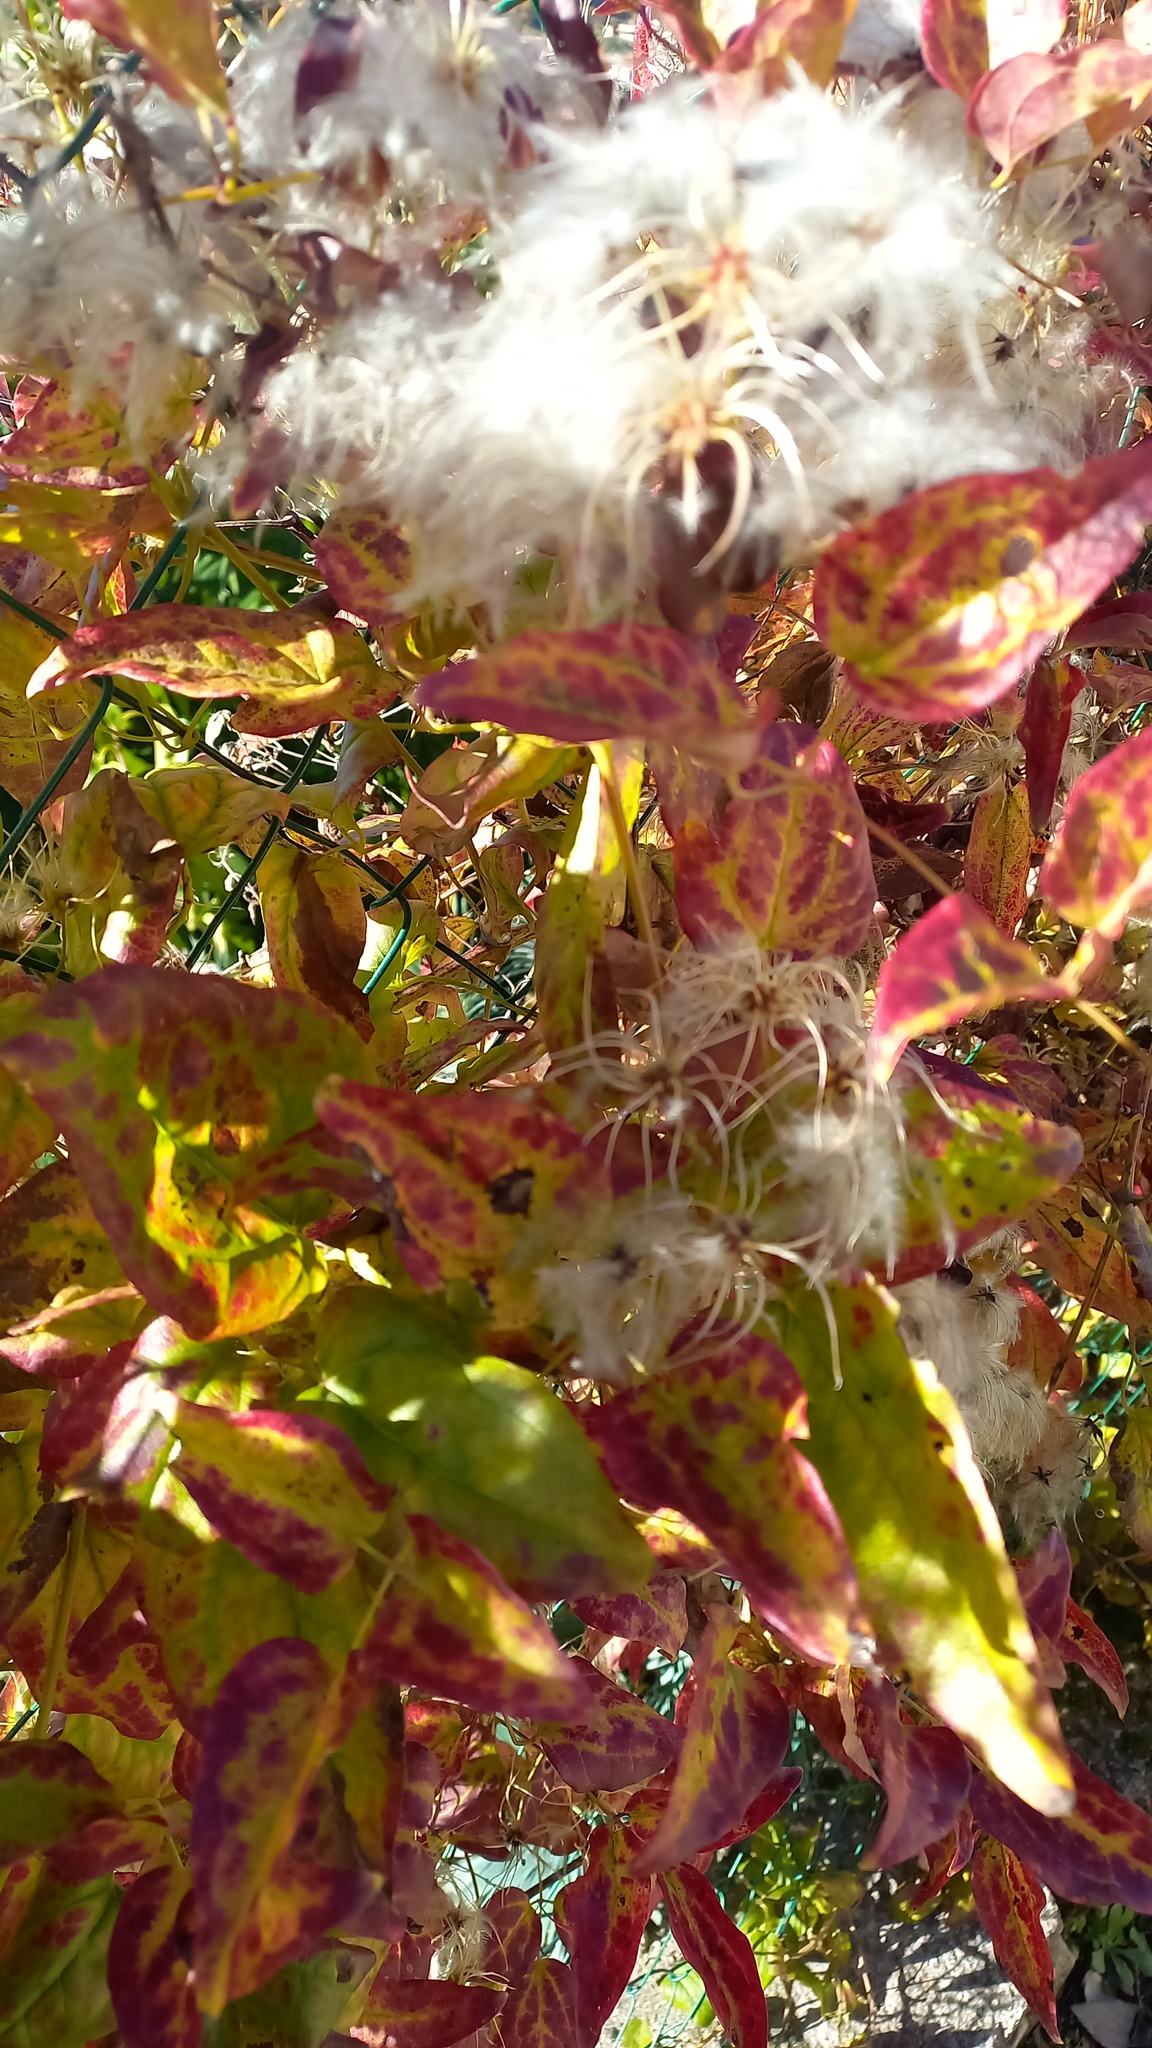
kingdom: Plantae
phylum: Tracheophyta
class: Magnoliopsida
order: Ranunculales
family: Ranunculaceae
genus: Clematis
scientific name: Clematis vitalba
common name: Evergreen clematis
